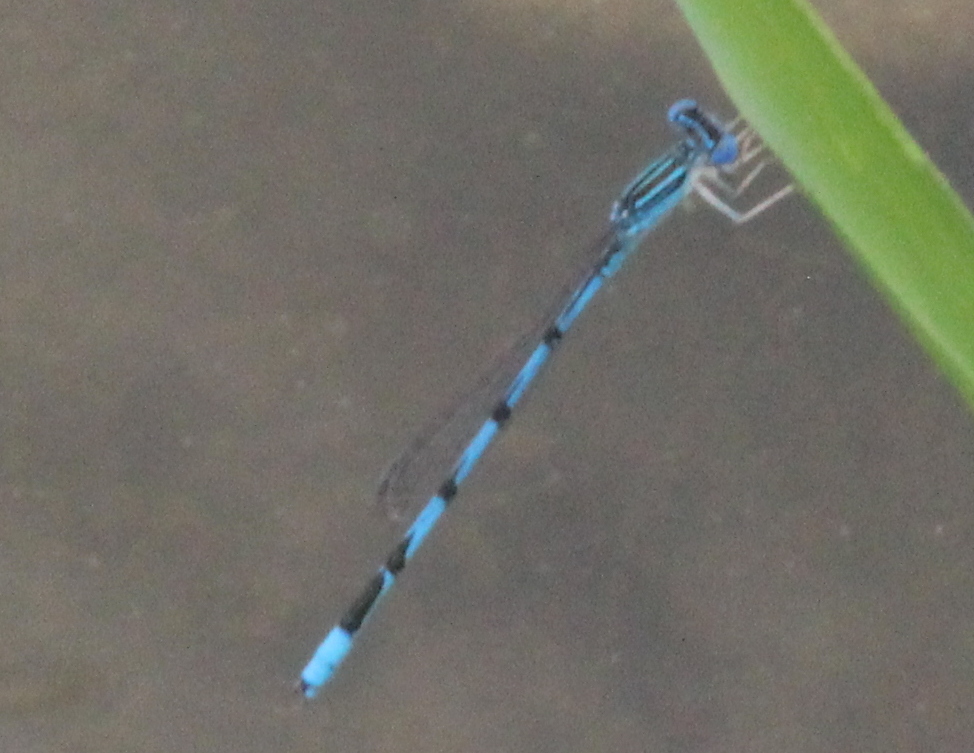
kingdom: Animalia
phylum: Arthropoda
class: Insecta
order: Odonata
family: Coenagrionidae
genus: Enallagma
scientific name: Enallagma basidens
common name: Double-striped bluet
